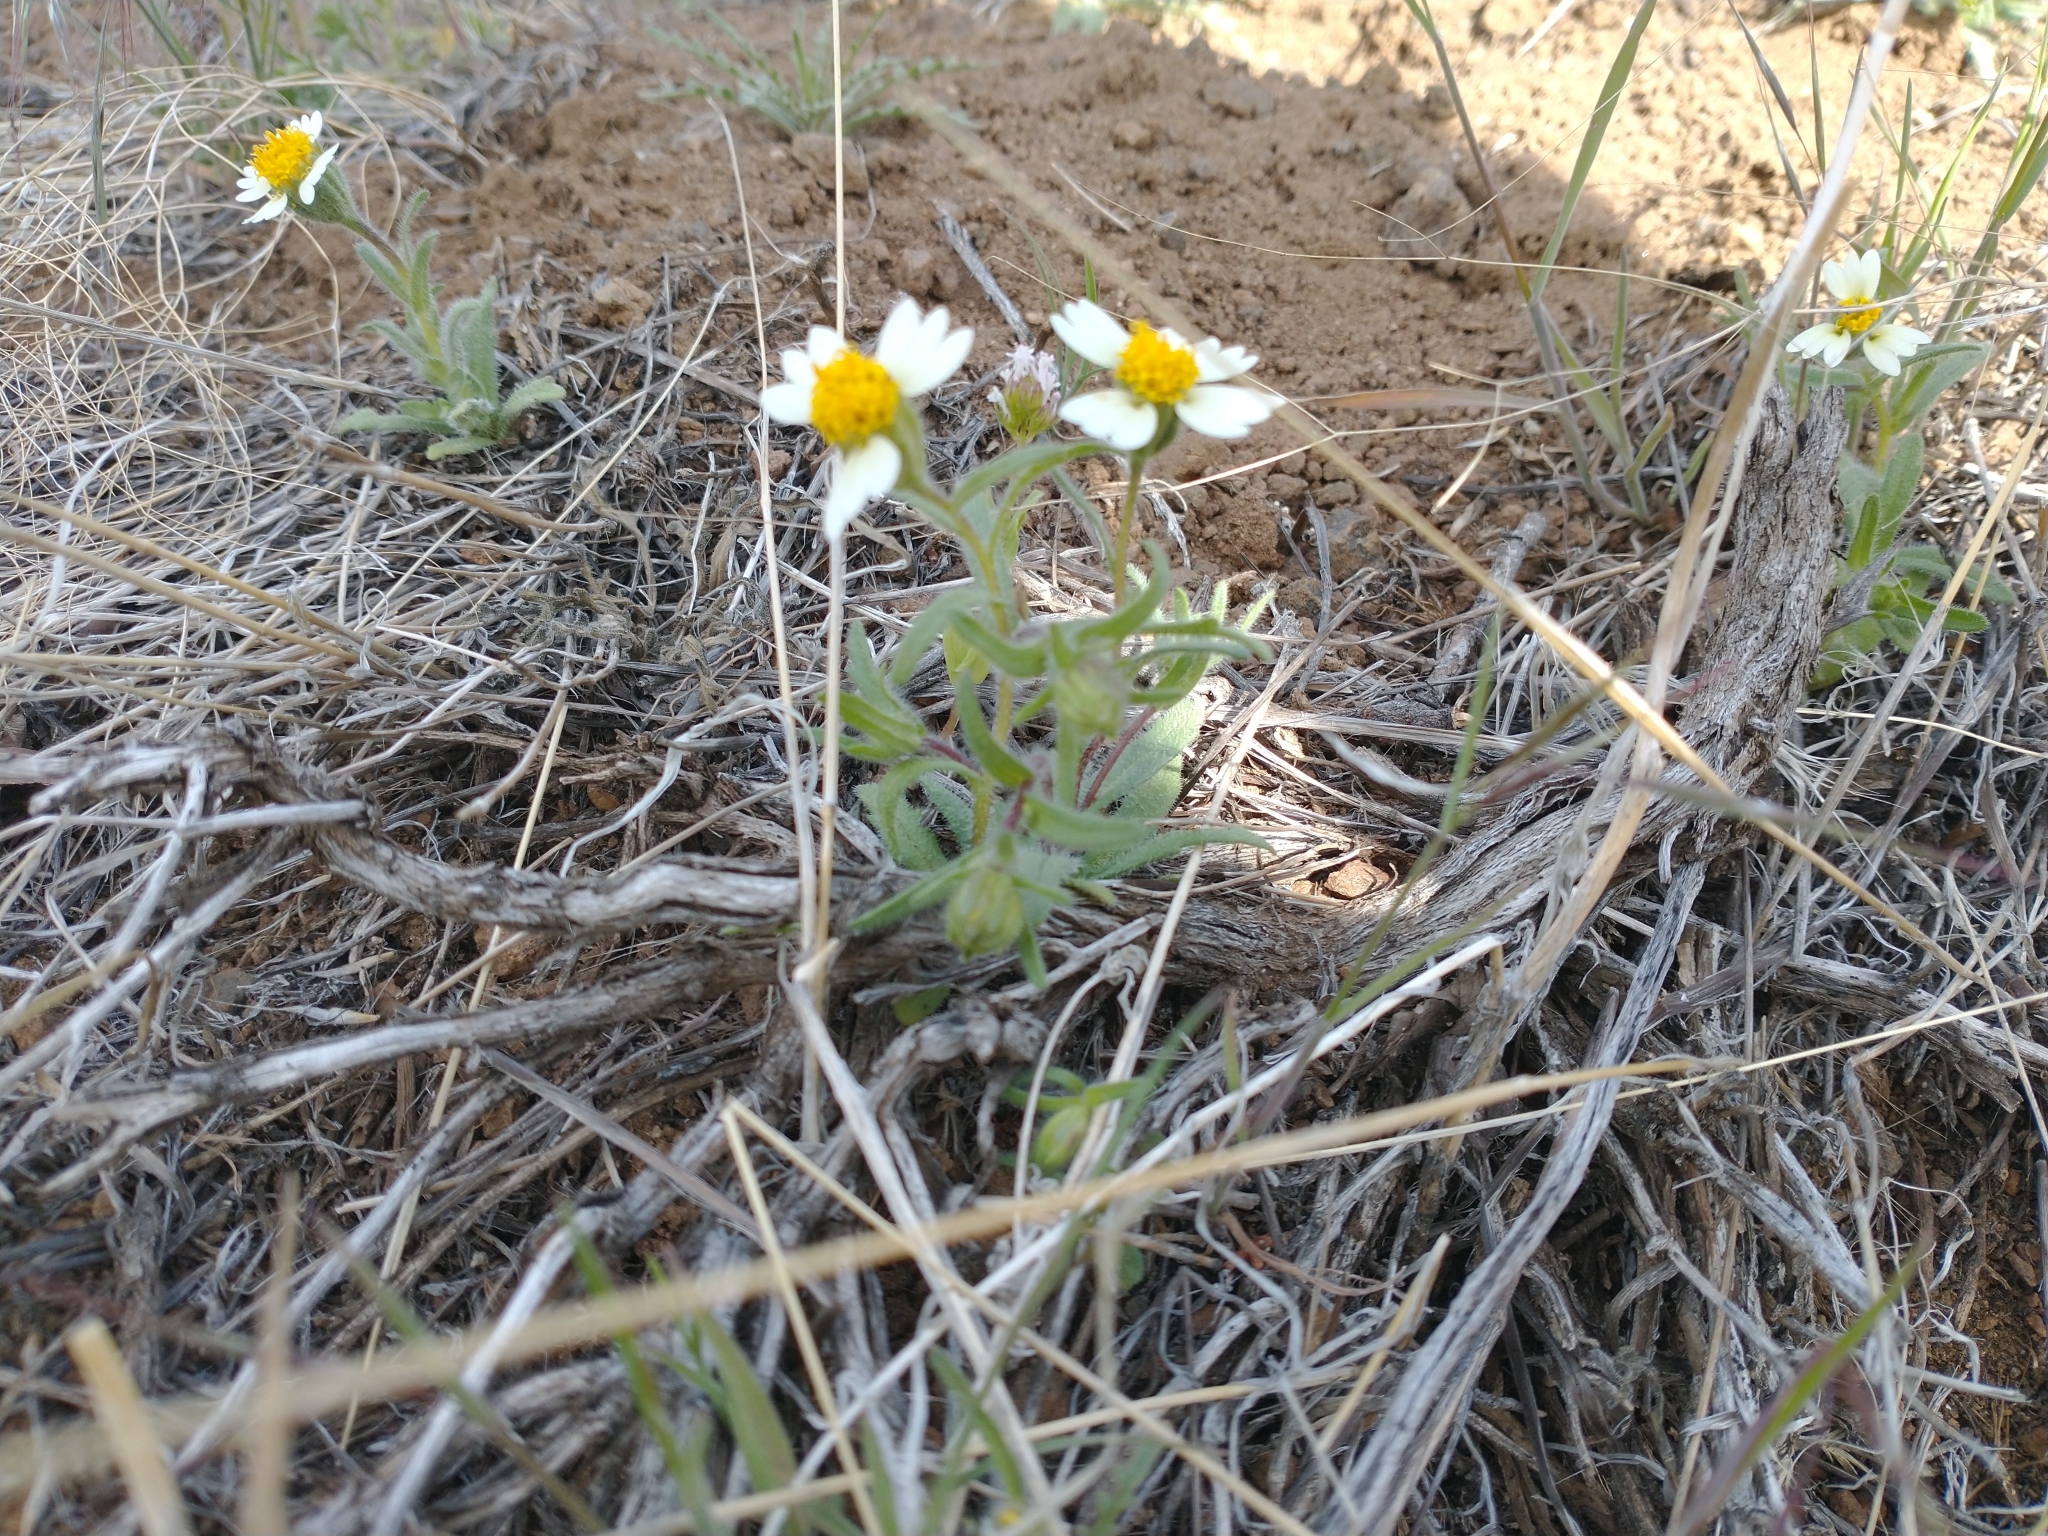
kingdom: Plantae
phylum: Tracheophyta
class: Magnoliopsida
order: Asterales
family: Asteraceae
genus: Layia
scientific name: Layia glandulosa
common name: White layia
